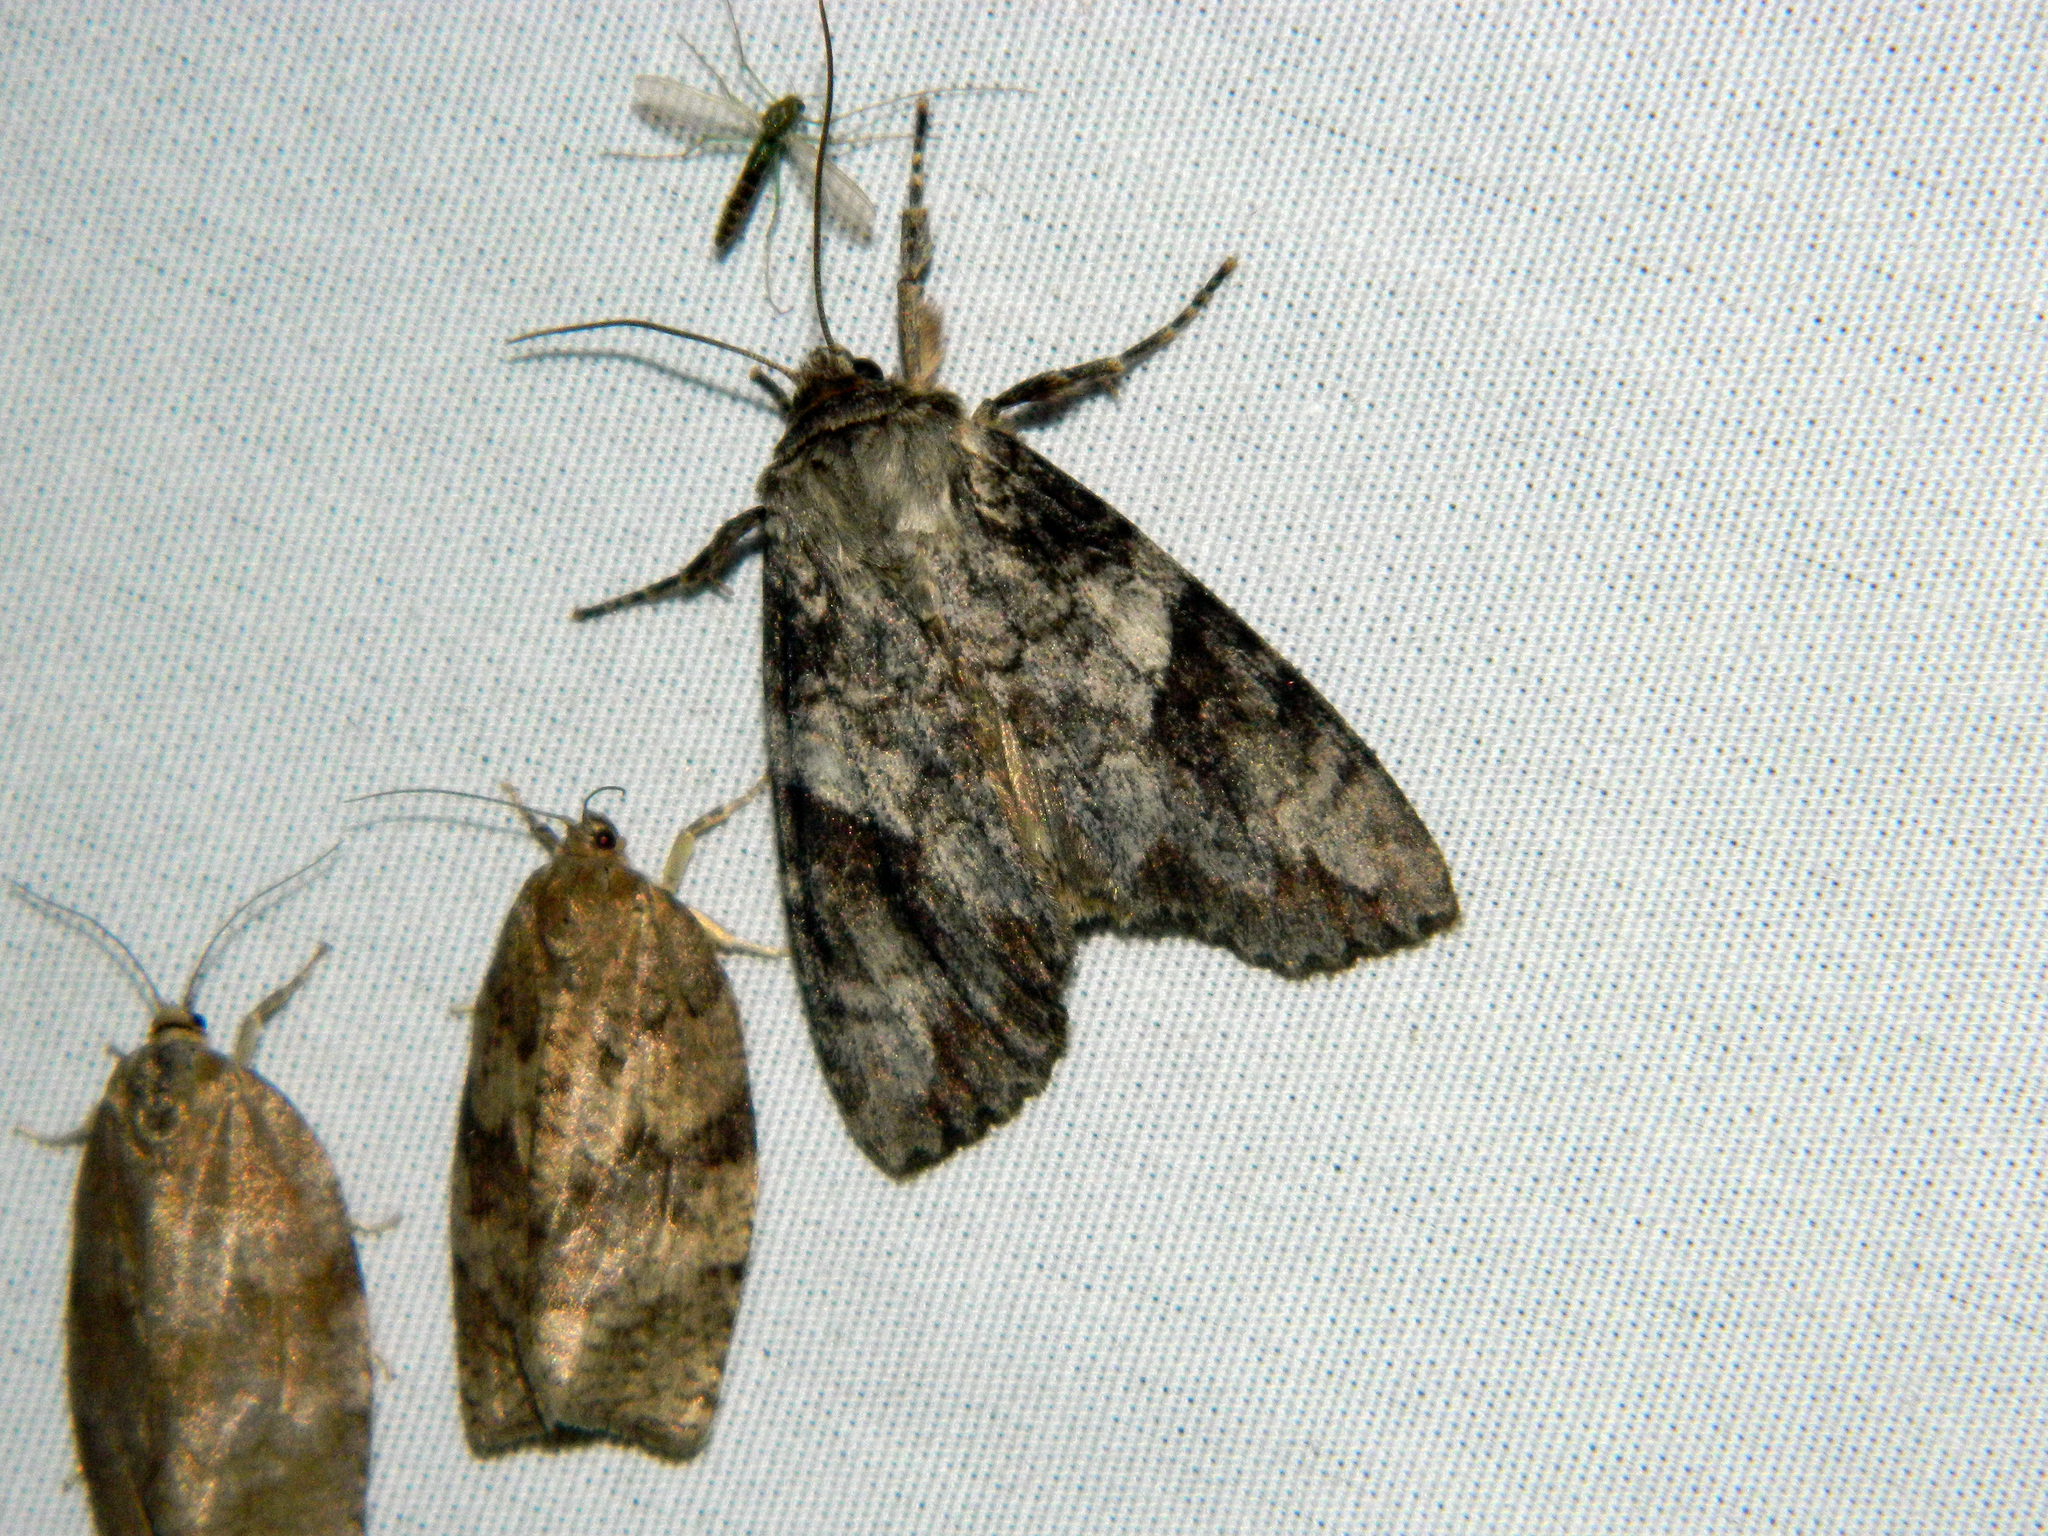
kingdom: Animalia
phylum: Arthropoda
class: Insecta
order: Lepidoptera
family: Noctuidae
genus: Achatia
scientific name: Achatia latex
